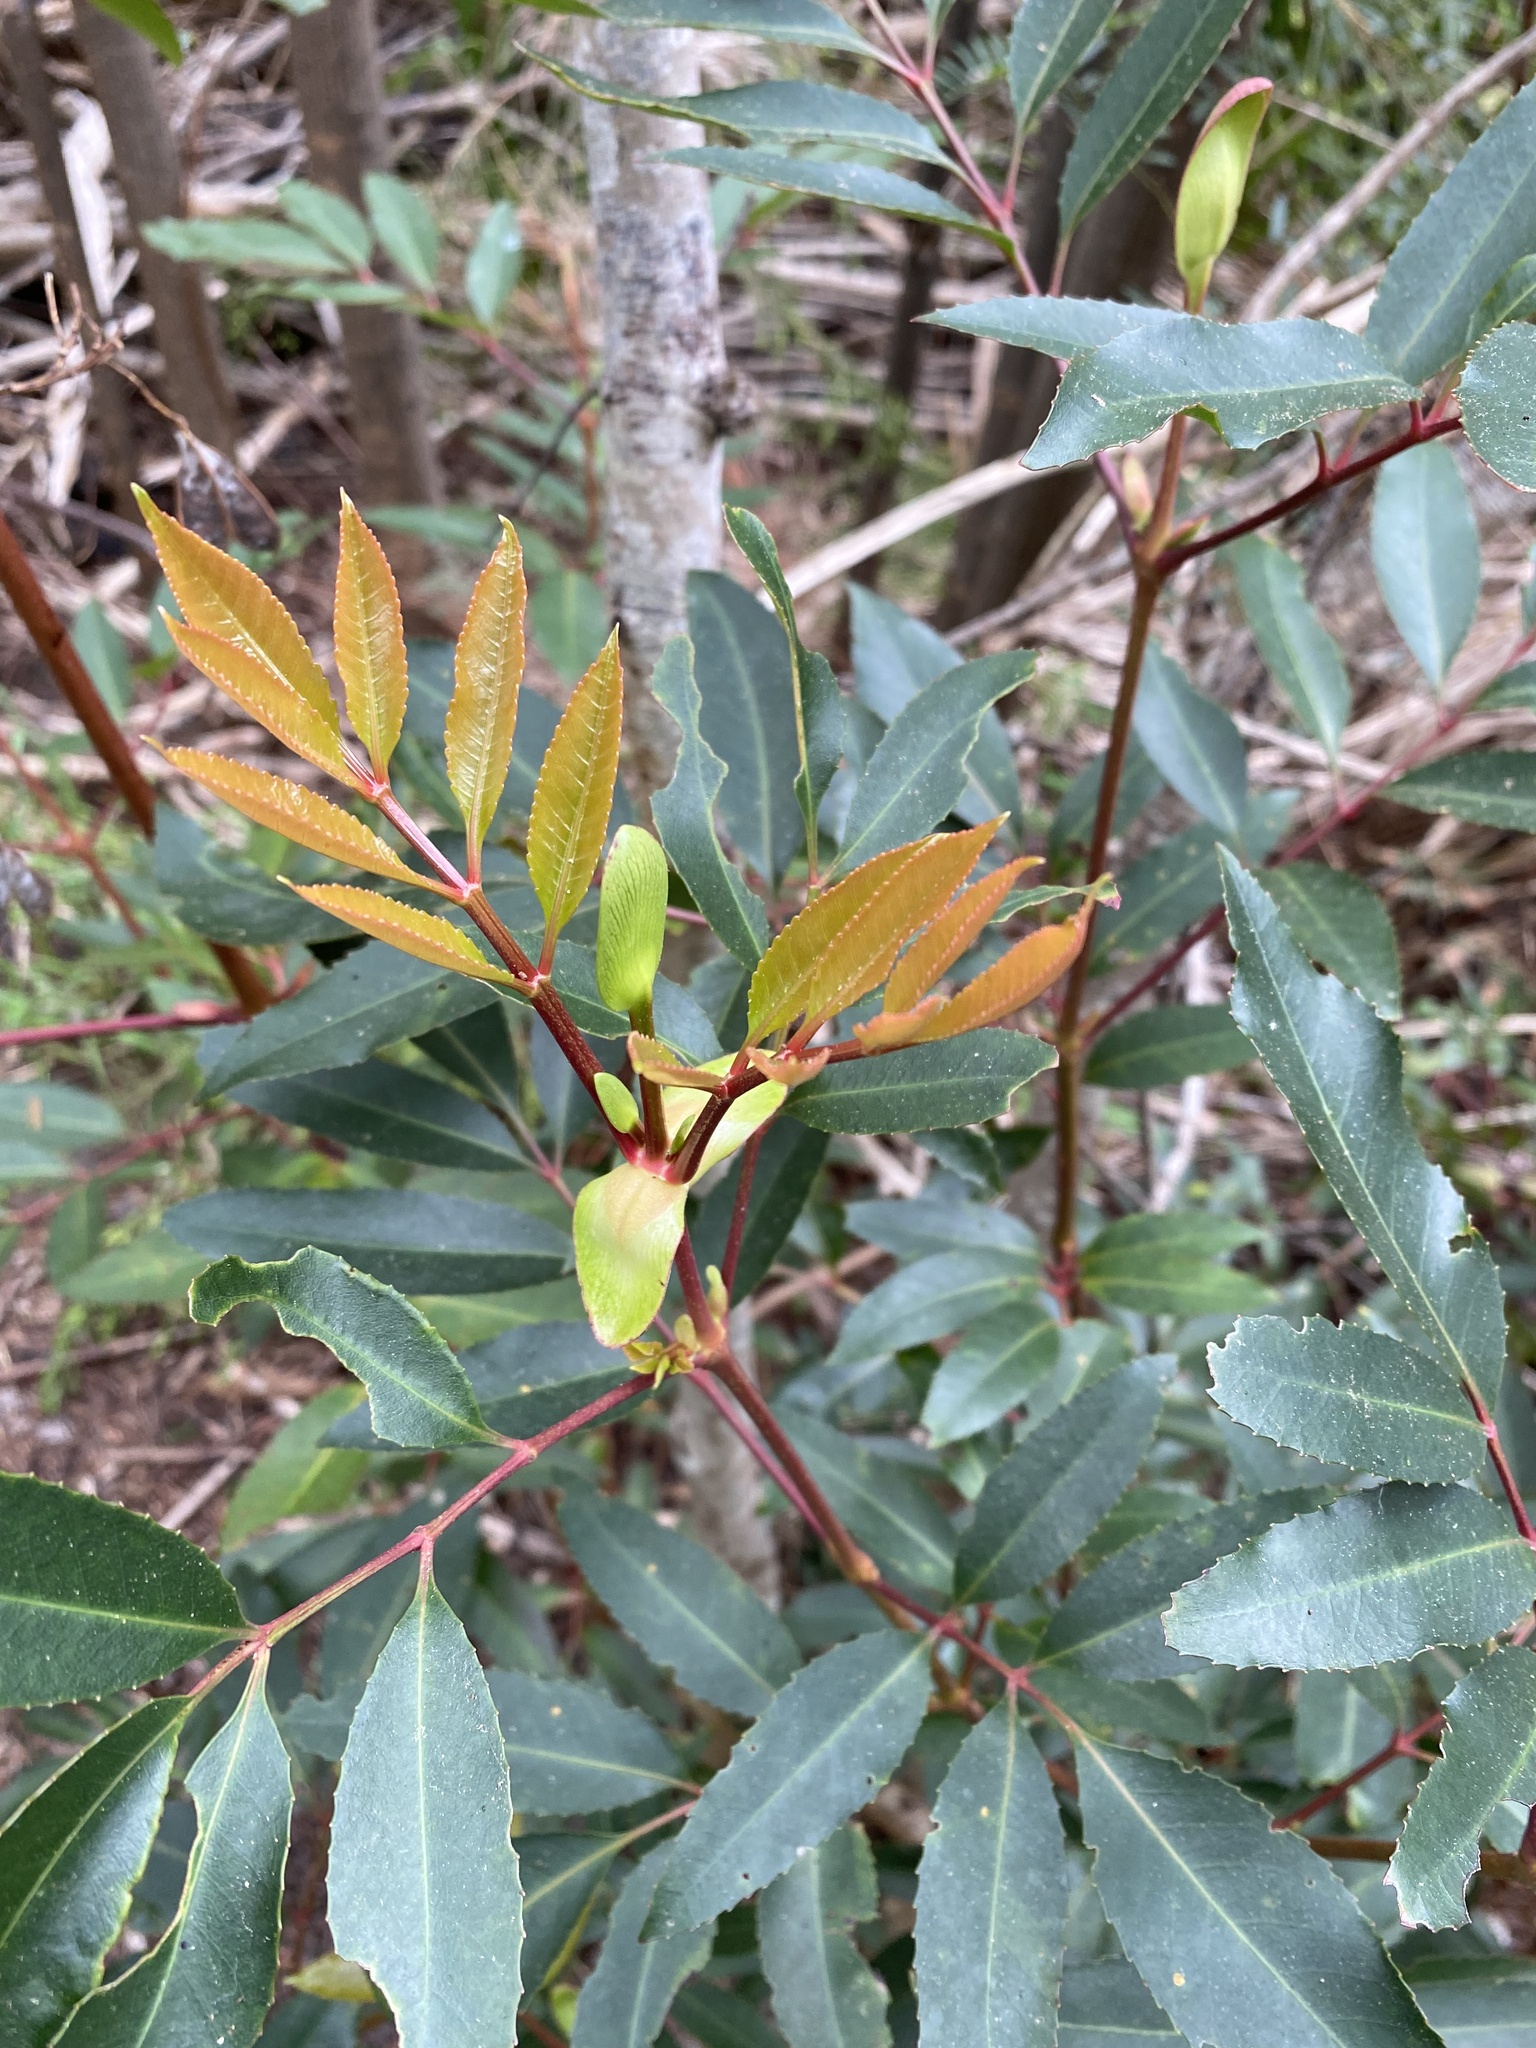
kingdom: Plantae
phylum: Tracheophyta
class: Magnoliopsida
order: Oxalidales
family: Cunoniaceae
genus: Cunonia
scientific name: Cunonia capensis
